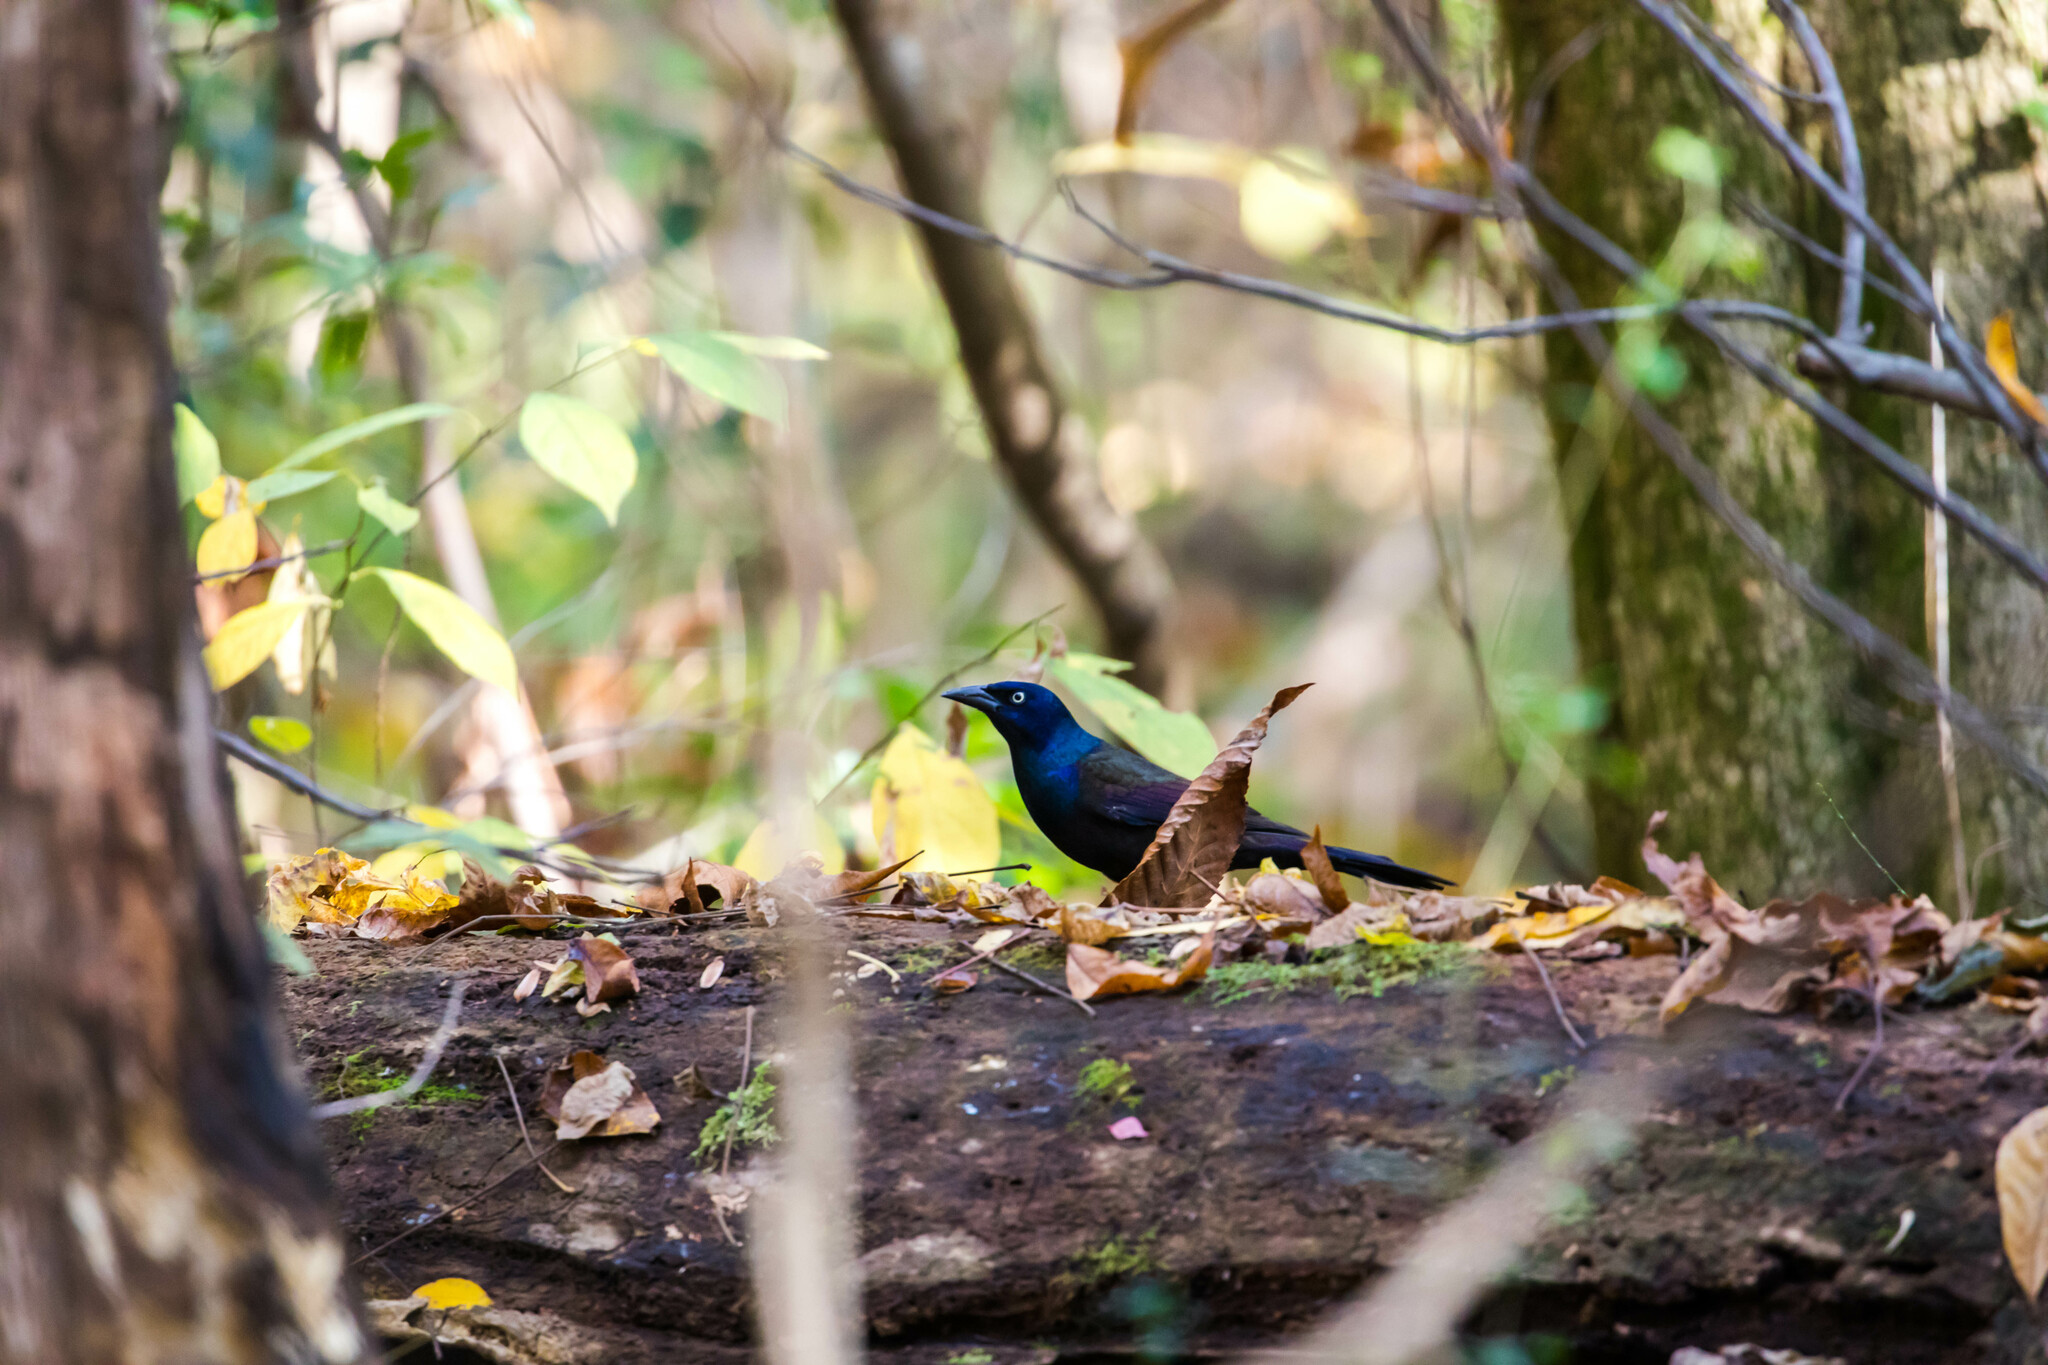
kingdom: Animalia
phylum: Chordata
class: Aves
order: Passeriformes
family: Icteridae
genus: Quiscalus
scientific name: Quiscalus quiscula
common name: Common grackle
